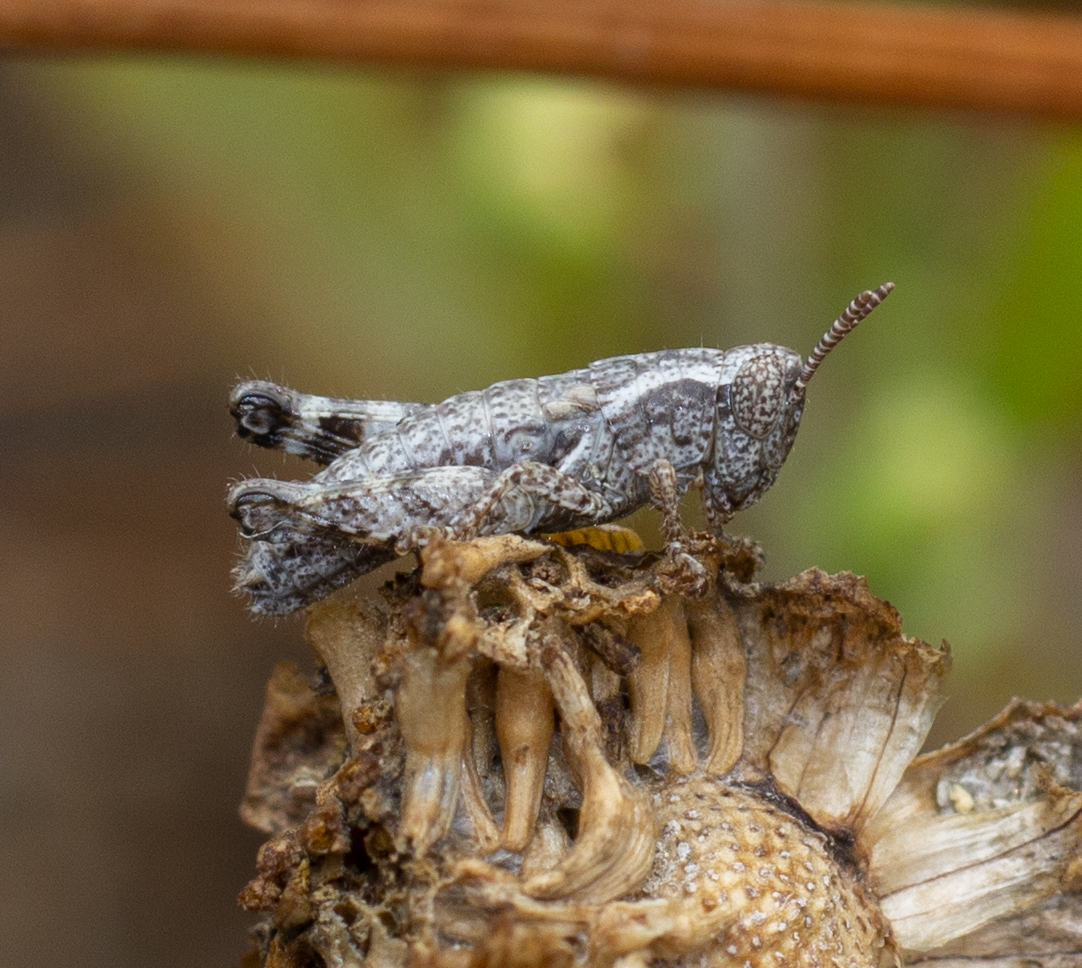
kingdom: Animalia
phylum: Arthropoda
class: Insecta
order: Orthoptera
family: Acrididae
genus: Pezotettix
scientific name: Pezotettix giornae
